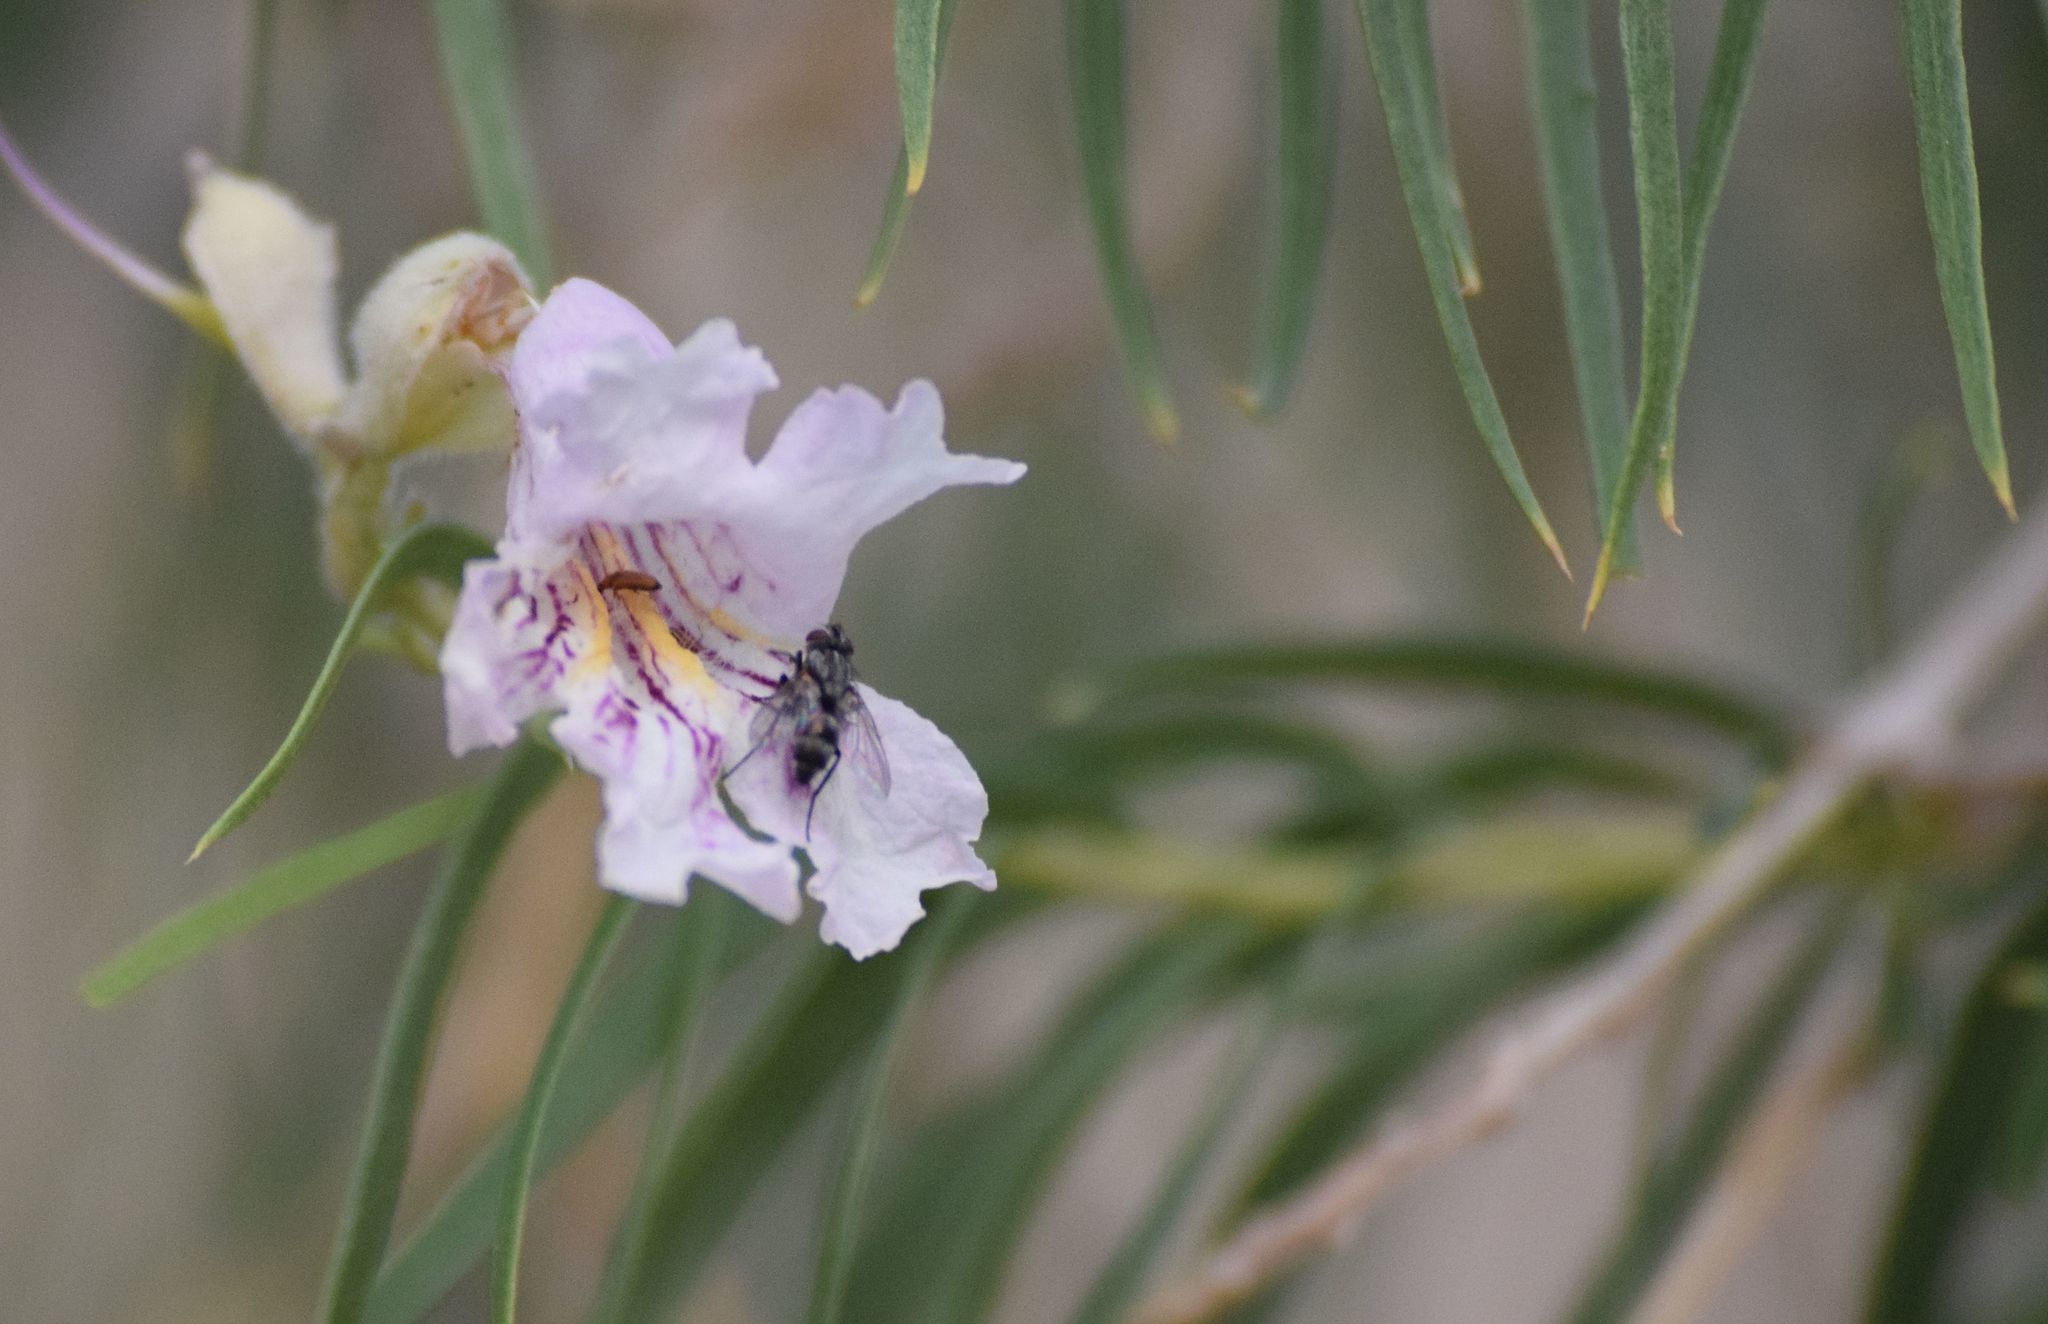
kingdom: Plantae
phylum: Tracheophyta
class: Magnoliopsida
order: Lamiales
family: Bignoniaceae
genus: Chilopsis
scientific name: Chilopsis linearis
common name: Desert-willow
